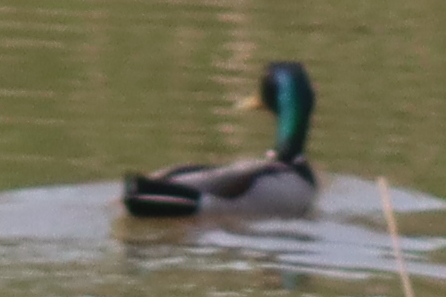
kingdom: Animalia
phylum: Chordata
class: Aves
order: Anseriformes
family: Anatidae
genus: Anas
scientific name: Anas platyrhynchos
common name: Mallard
